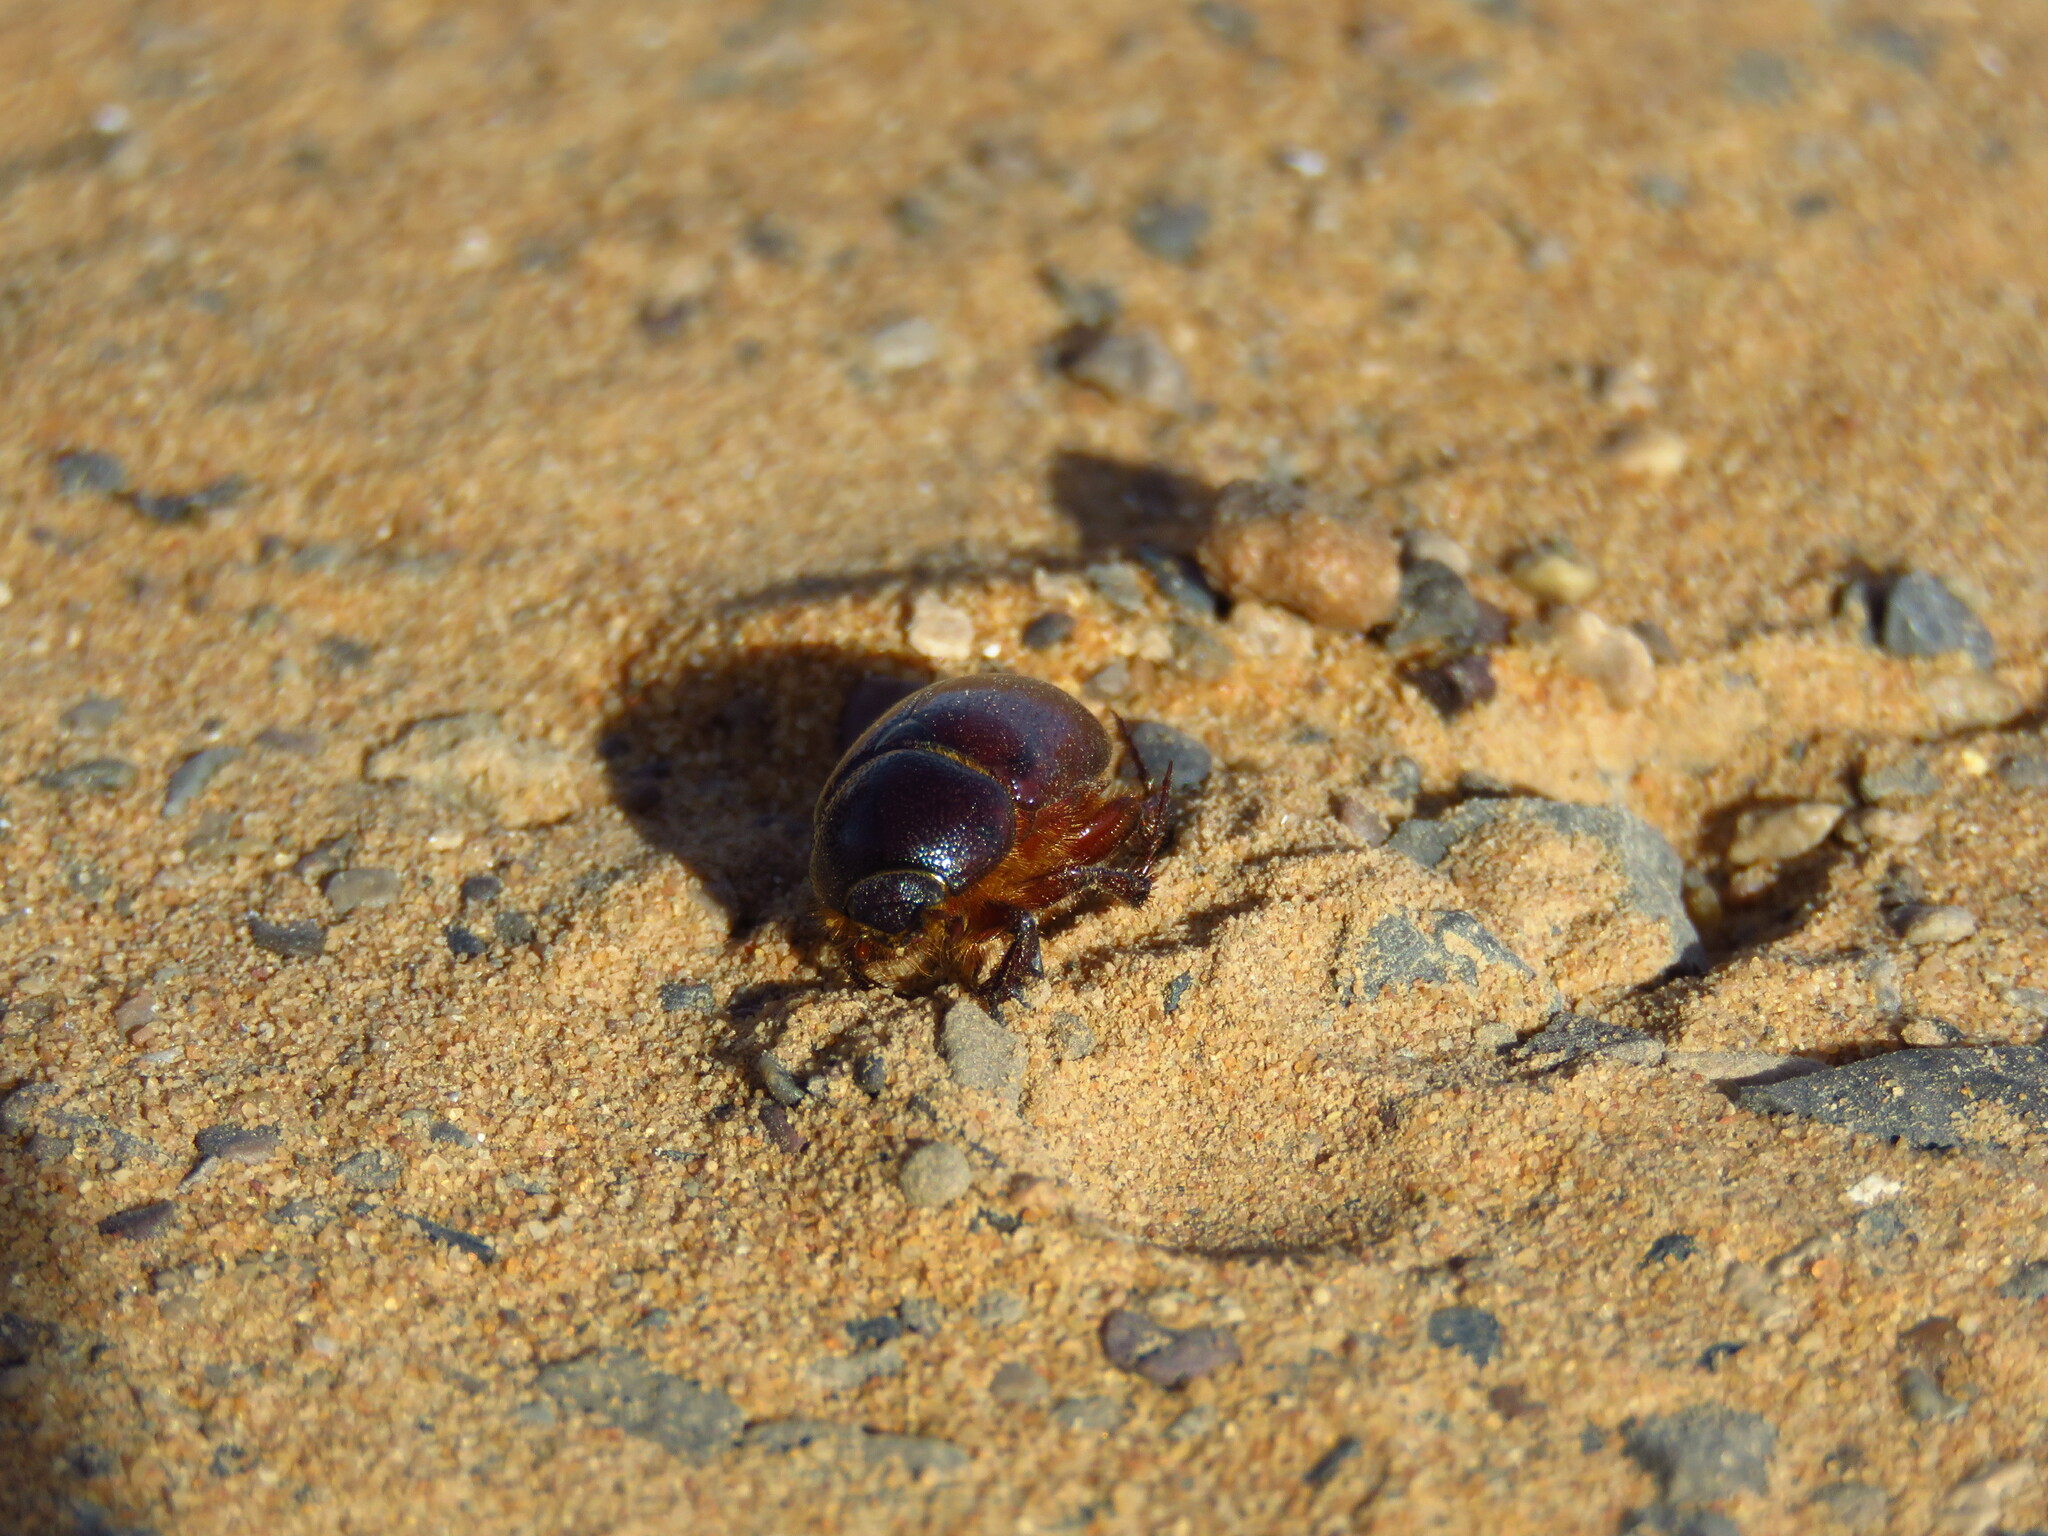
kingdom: Animalia
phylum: Arthropoda
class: Insecta
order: Coleoptera
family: Scarabaeidae
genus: Podalgus
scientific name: Podalgus cuniculus
